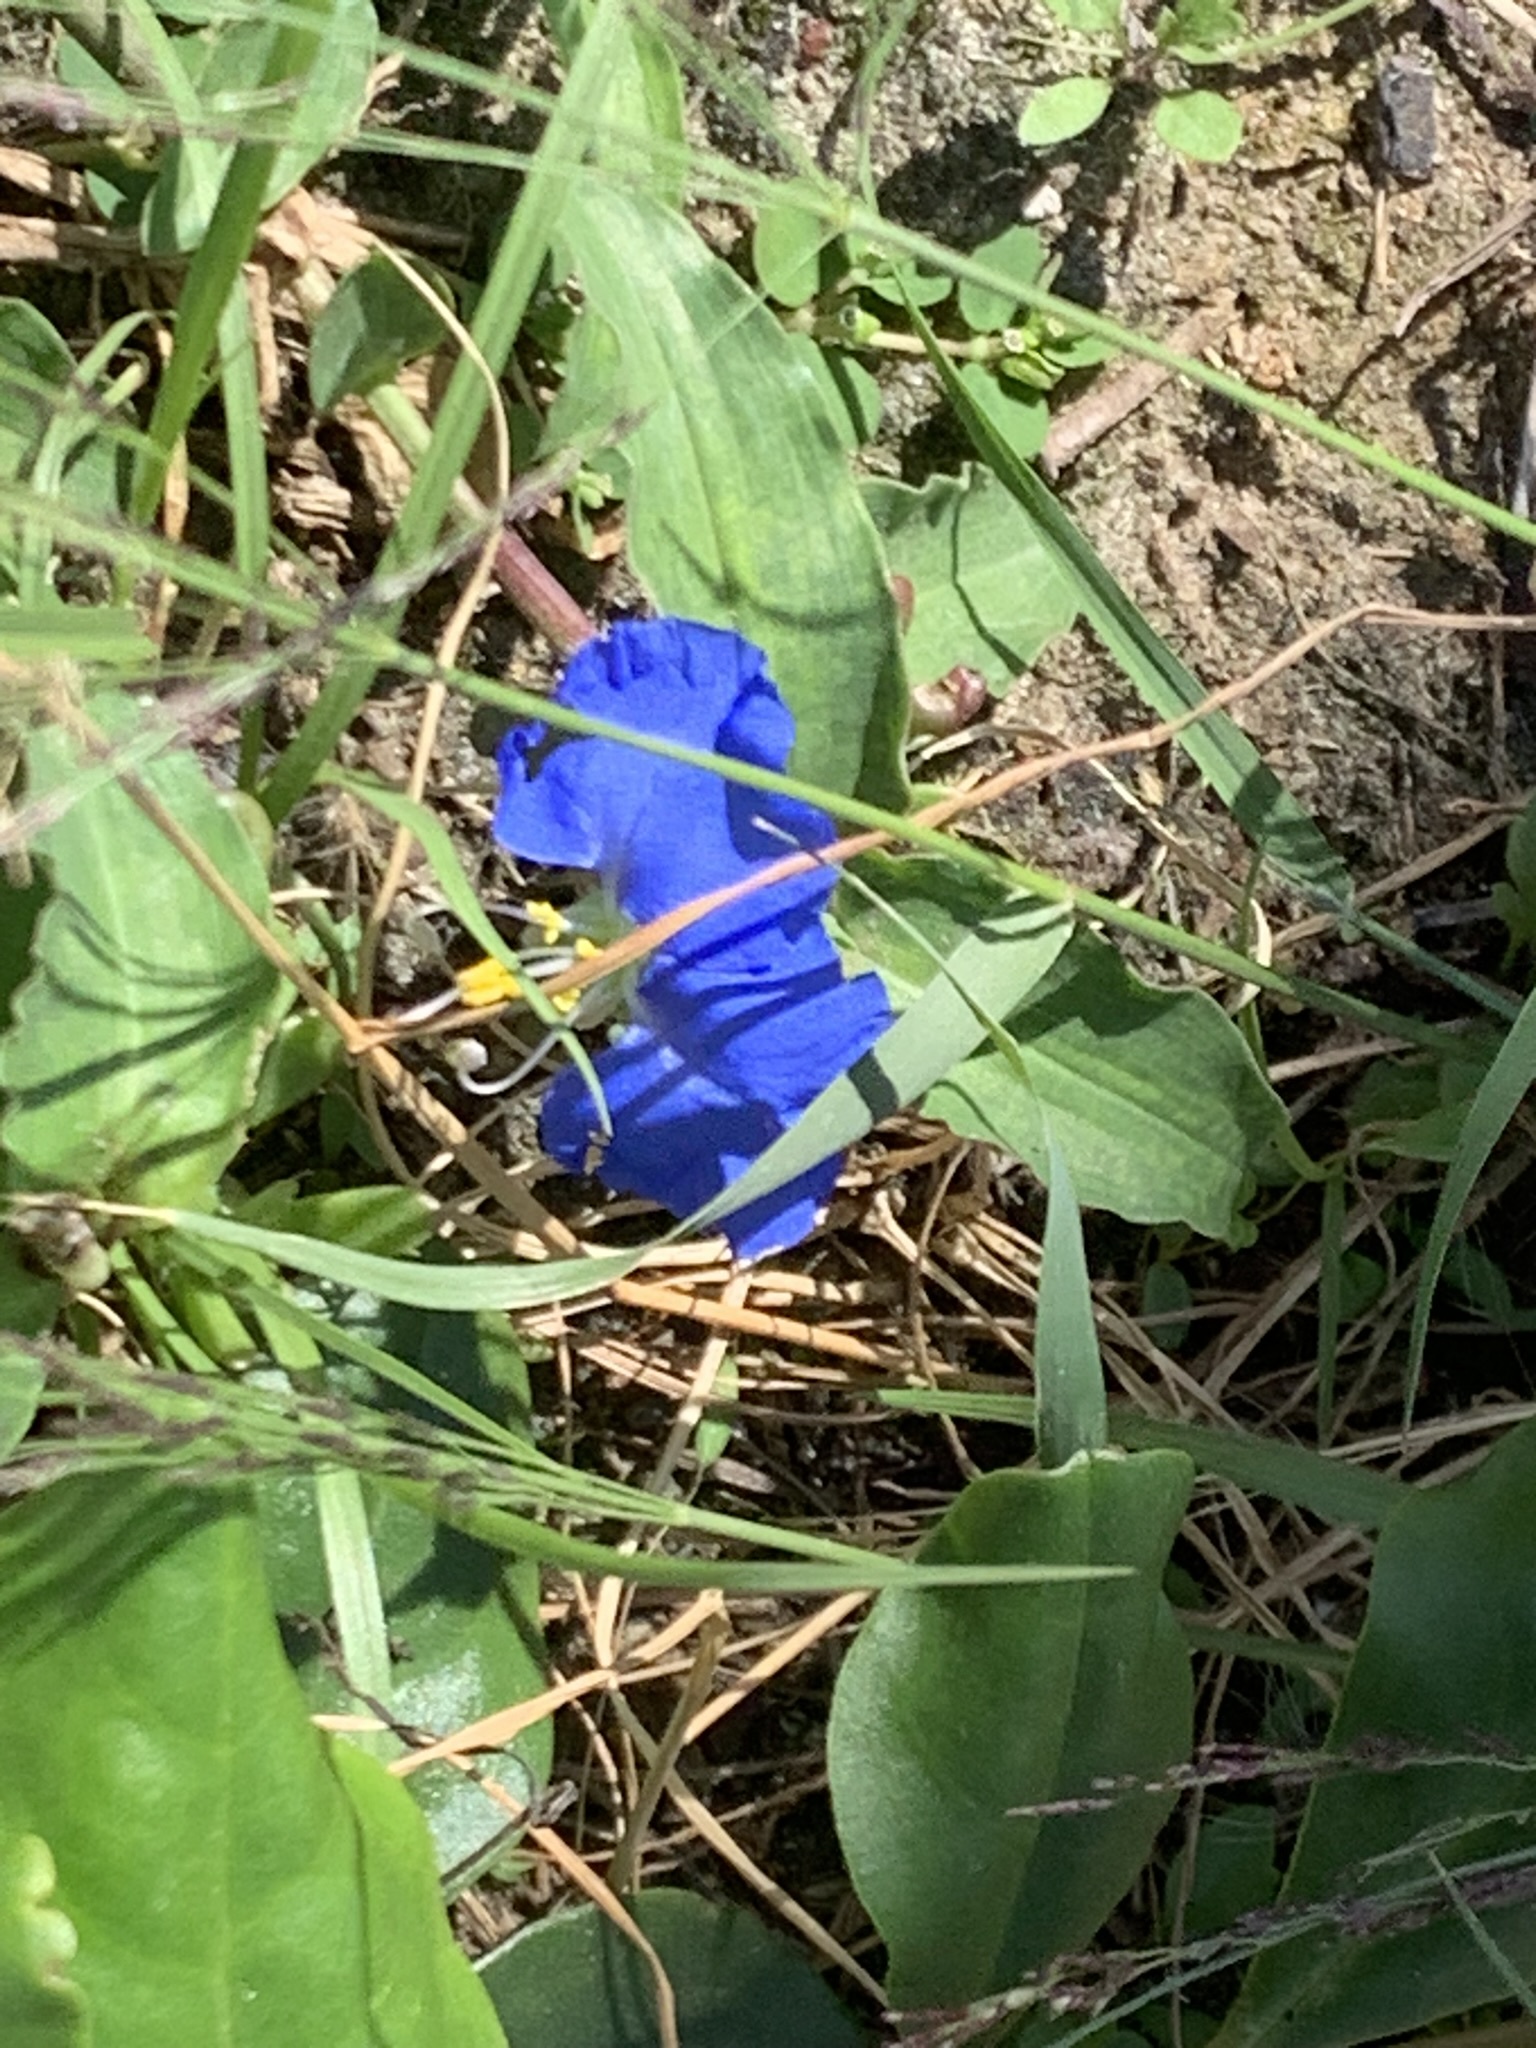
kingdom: Plantae
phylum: Tracheophyta
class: Liliopsida
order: Commelinales
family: Commelinaceae
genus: Commelina
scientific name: Commelina erecta
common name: Blousel blommetjie
